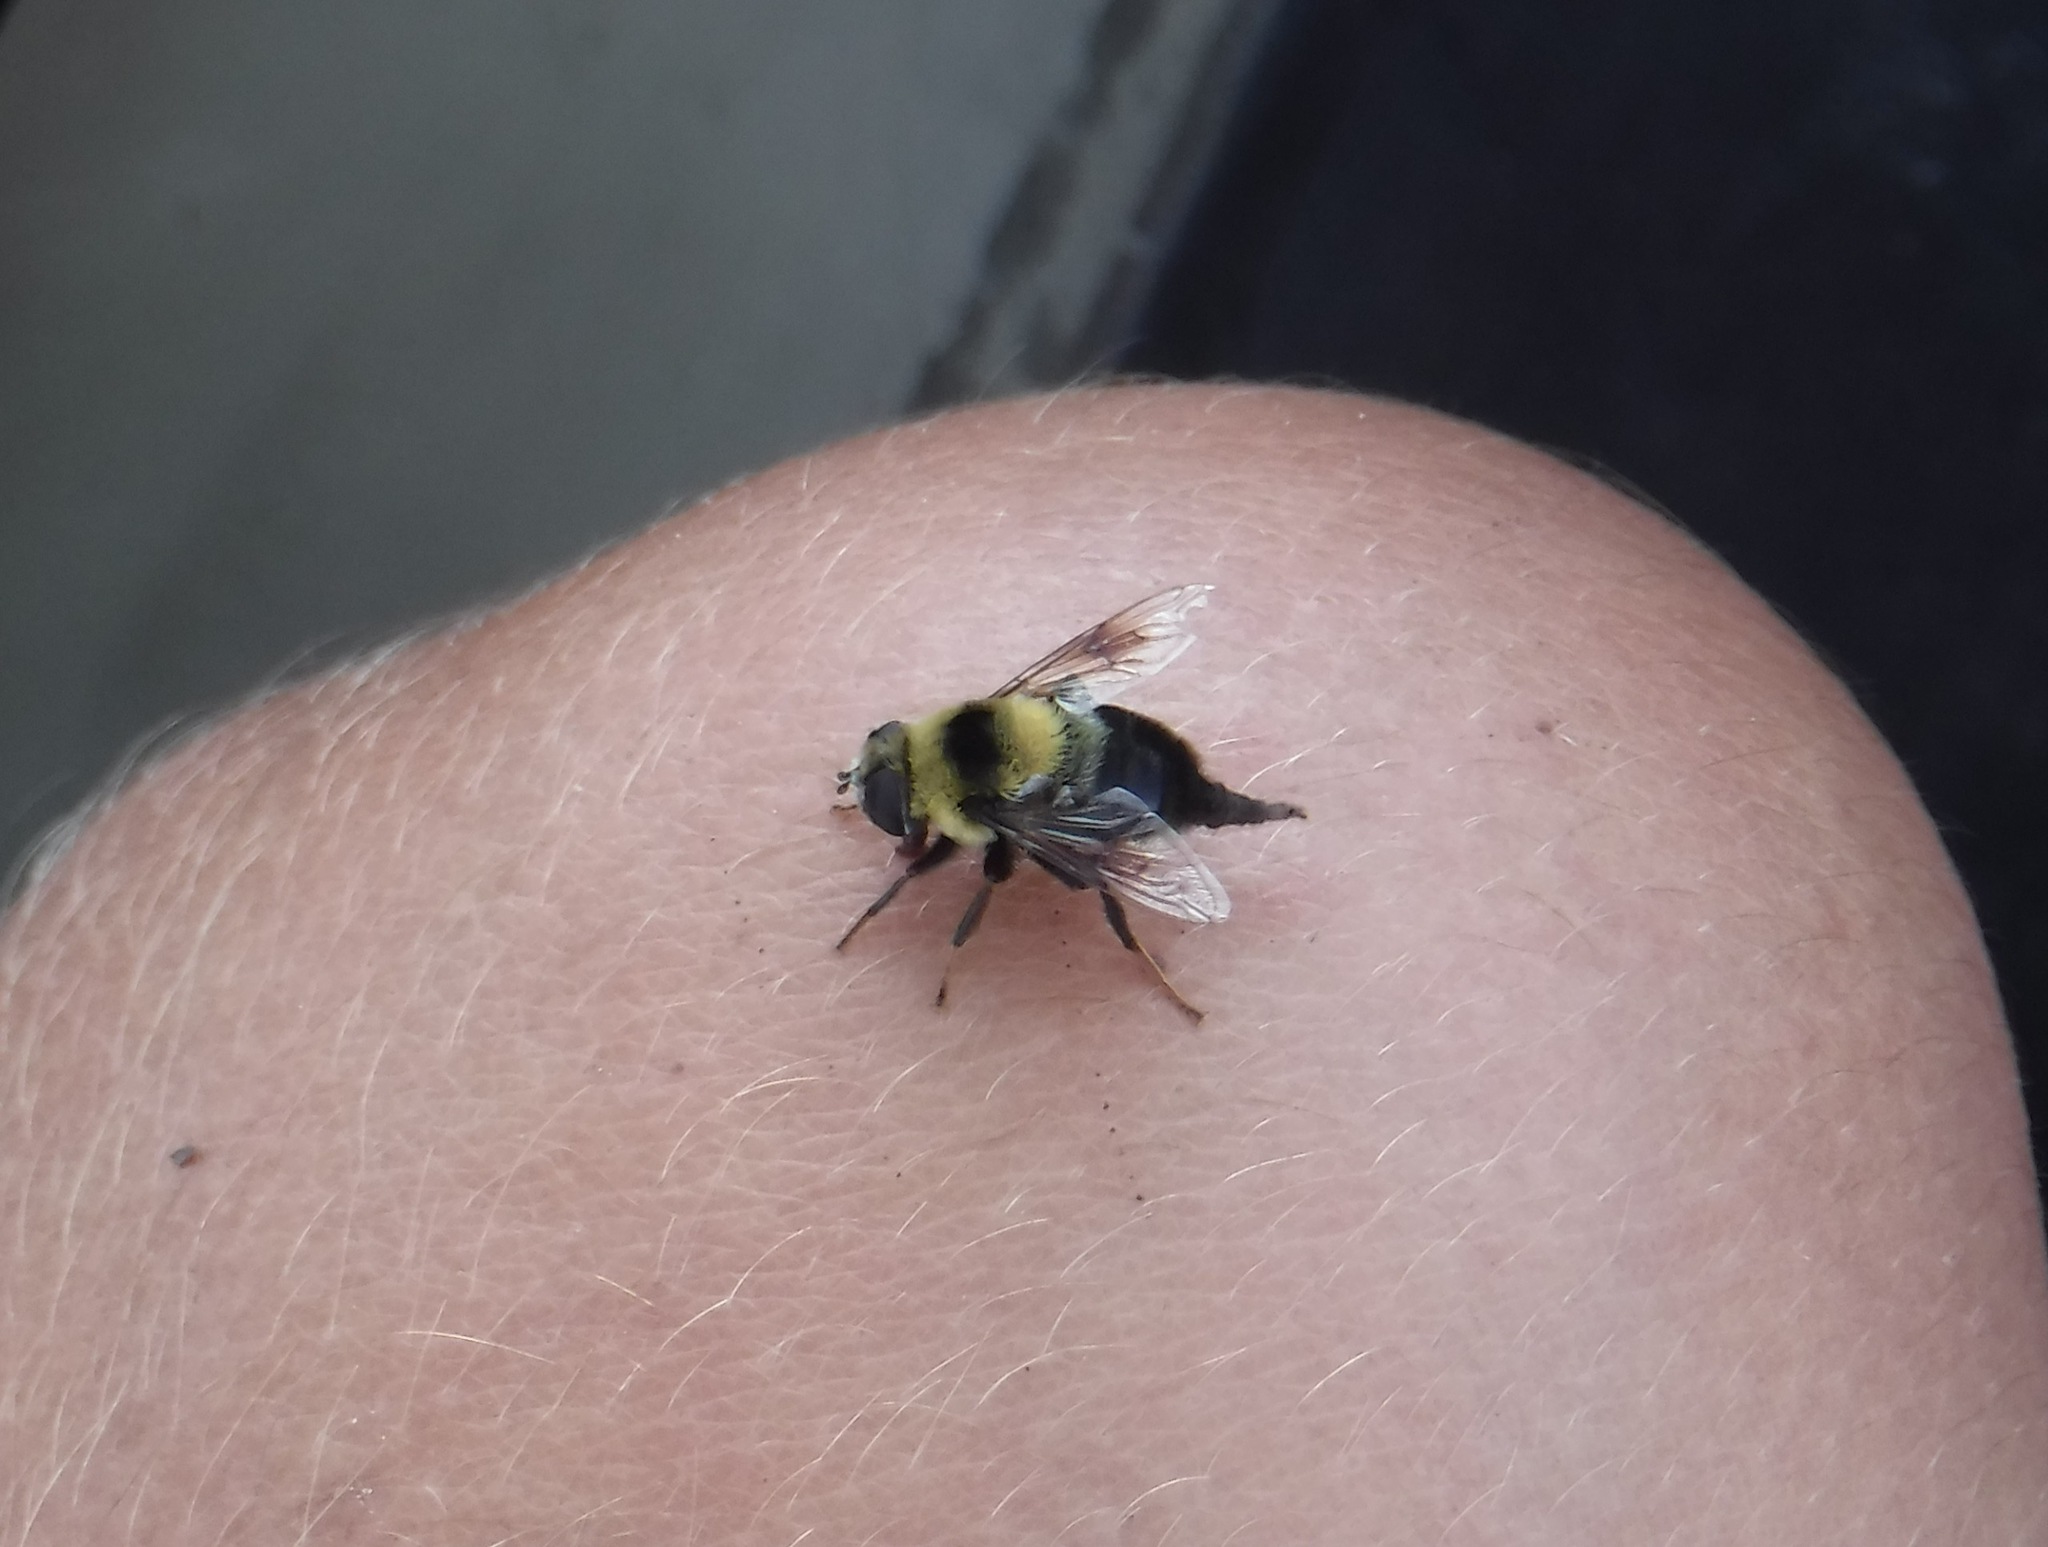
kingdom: Animalia
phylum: Arthropoda
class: Insecta
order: Diptera
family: Syrphidae
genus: Eristalis
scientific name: Eristalis flavipes
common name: Orange-legged drone fly
